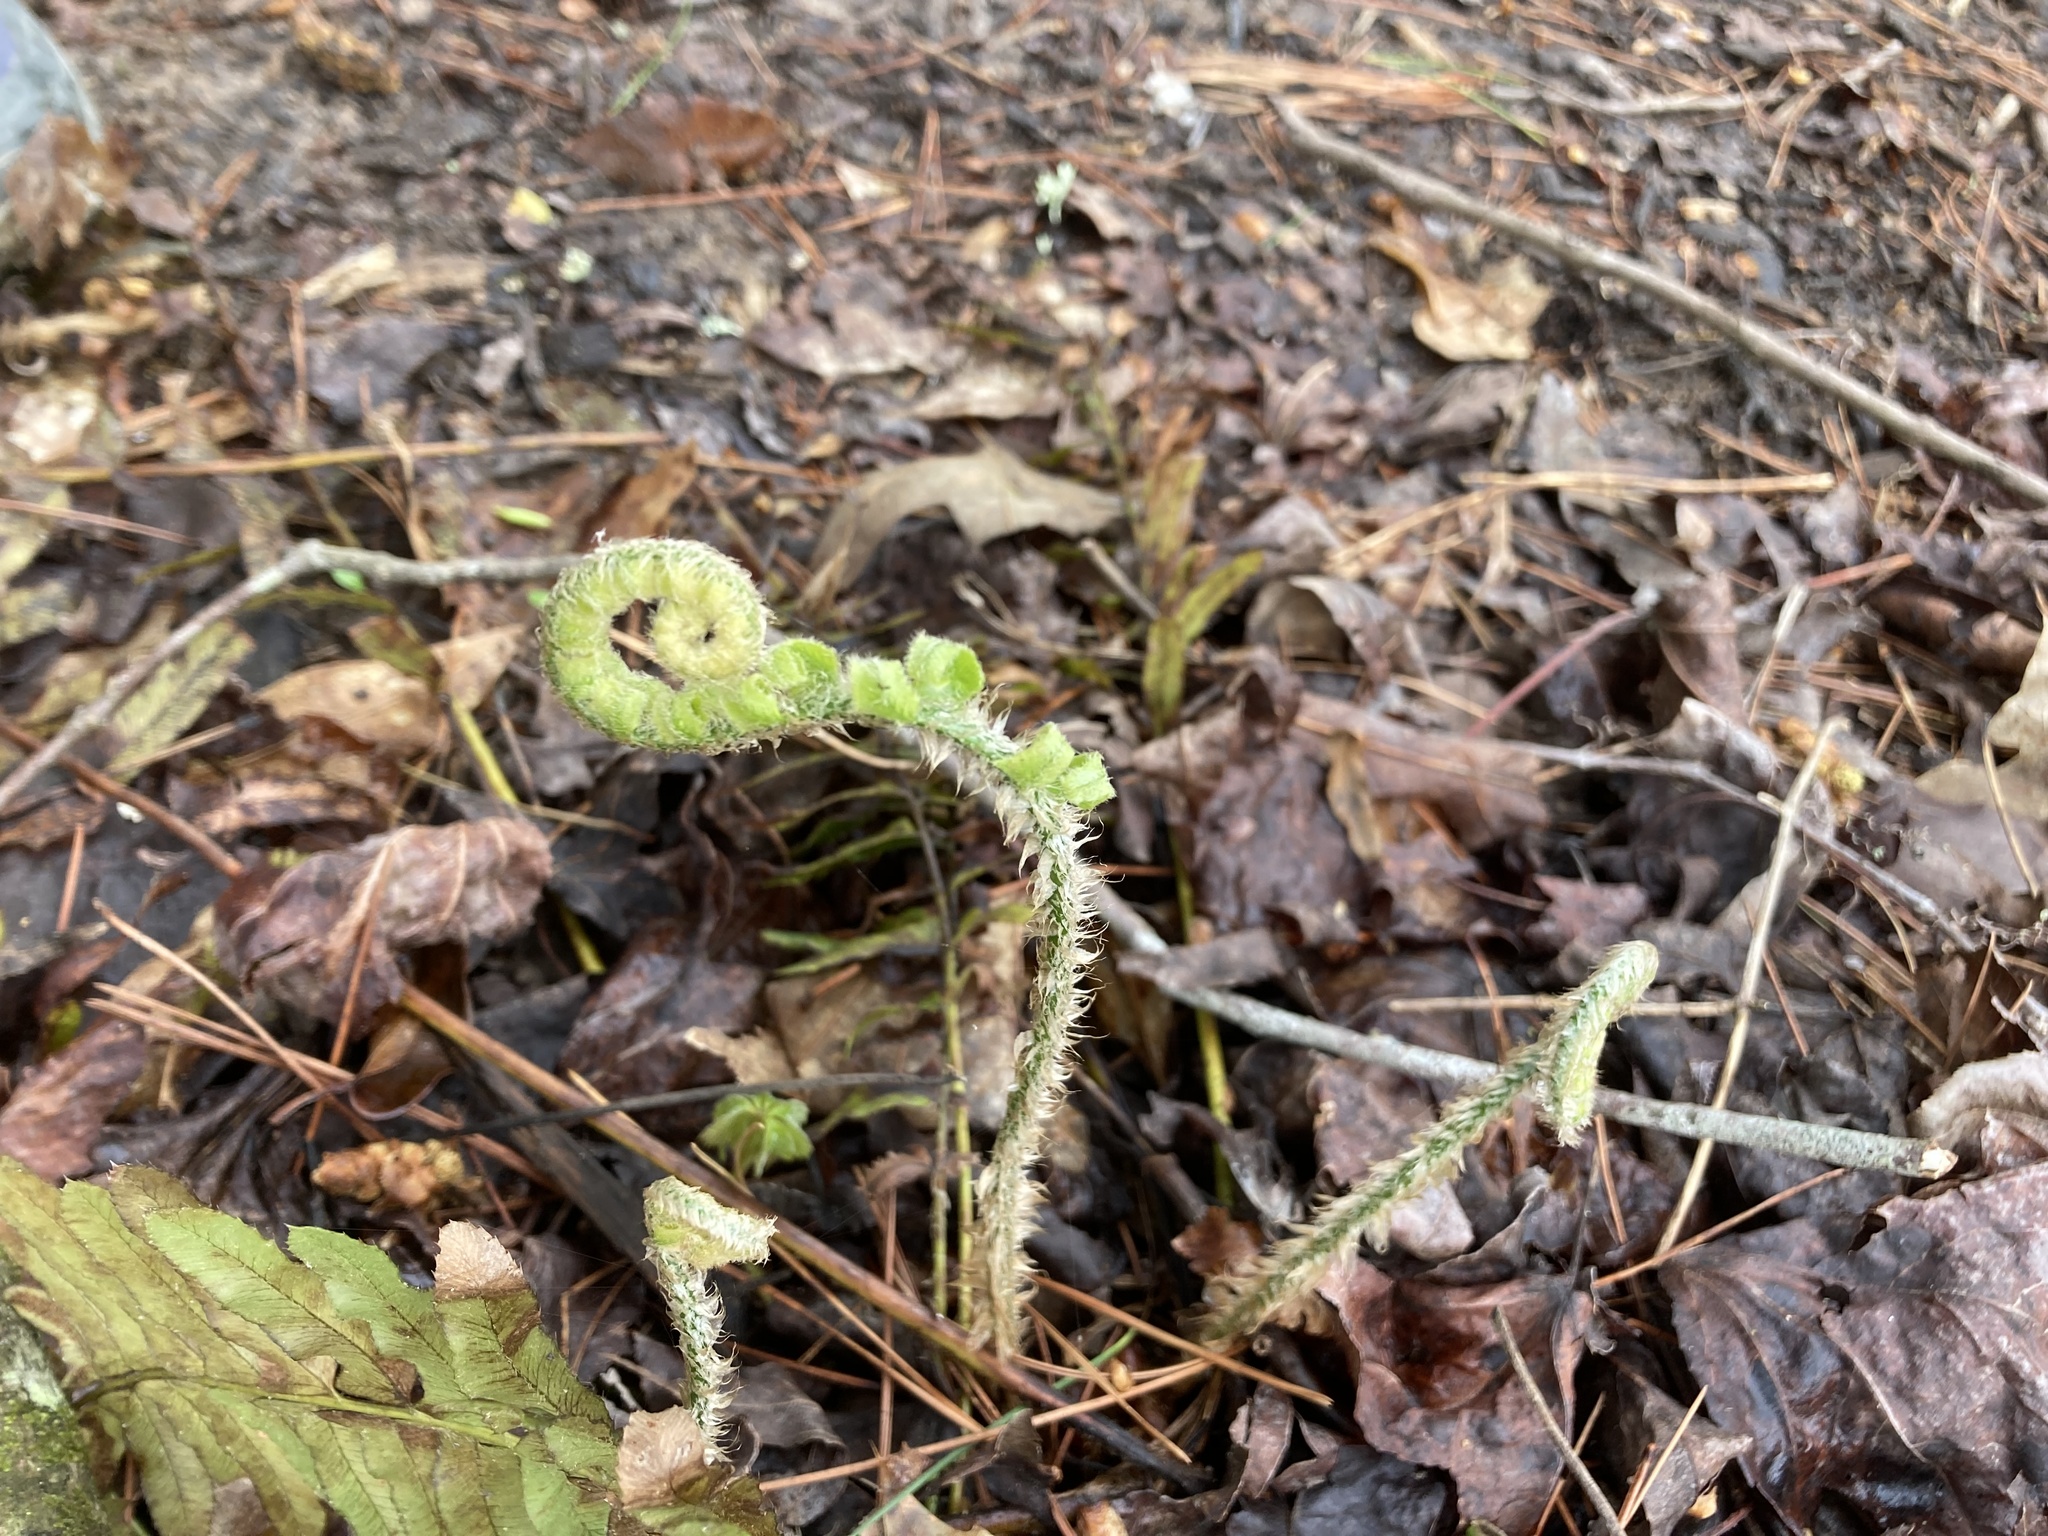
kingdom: Plantae
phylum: Tracheophyta
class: Polypodiopsida
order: Polypodiales
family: Dryopteridaceae
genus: Polystichum
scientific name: Polystichum acrostichoides
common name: Christmas fern
